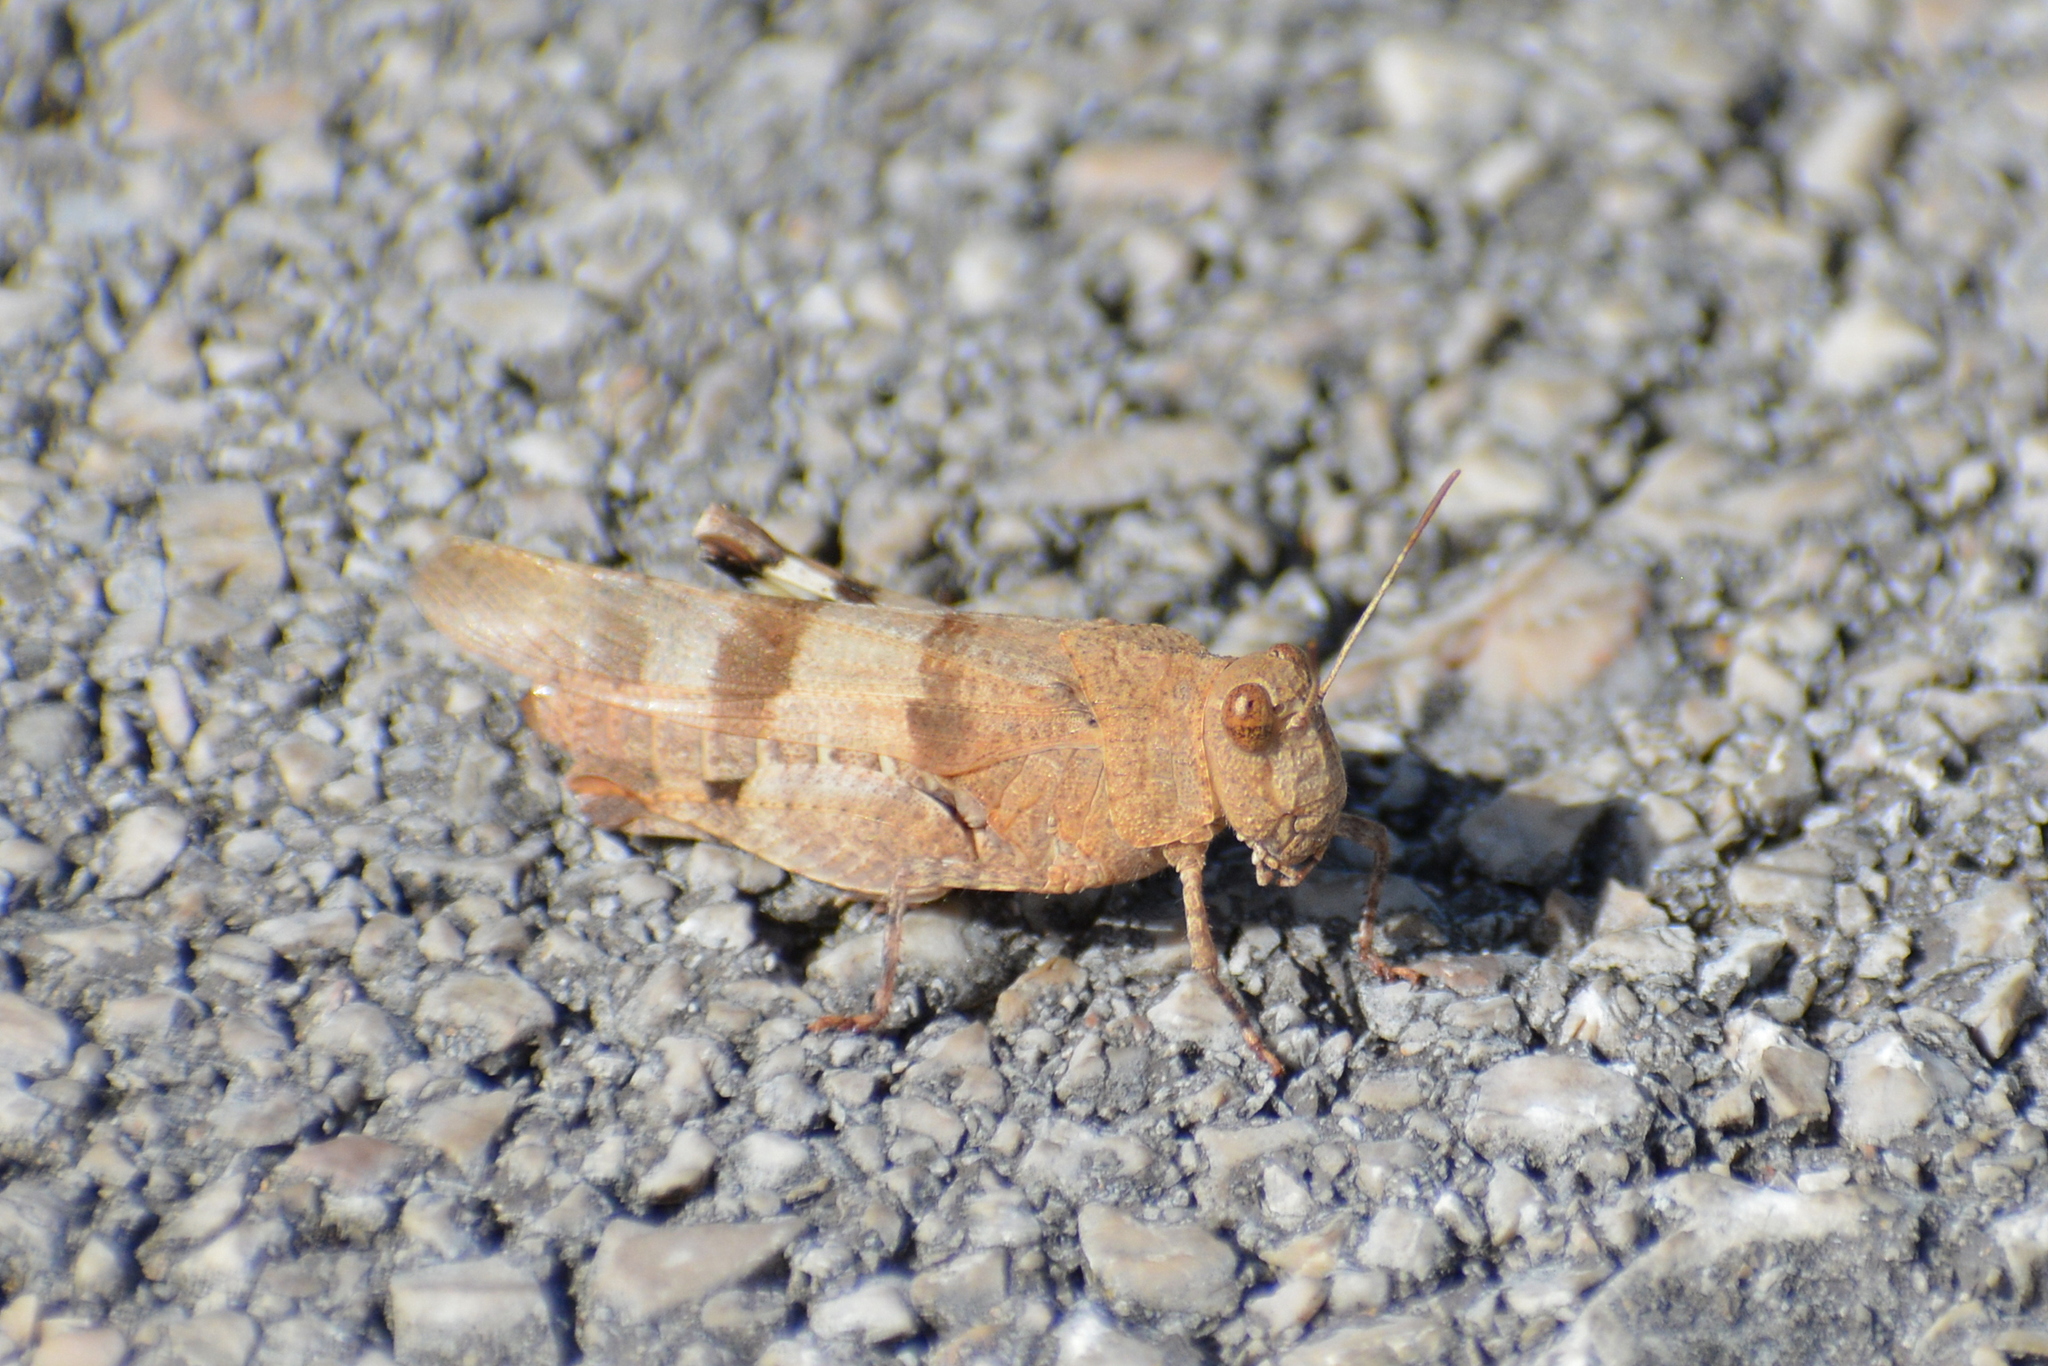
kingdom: Animalia
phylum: Arthropoda
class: Insecta
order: Orthoptera
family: Acrididae
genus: Oedipoda
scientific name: Oedipoda caerulescens
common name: Blue-winged grasshopper
